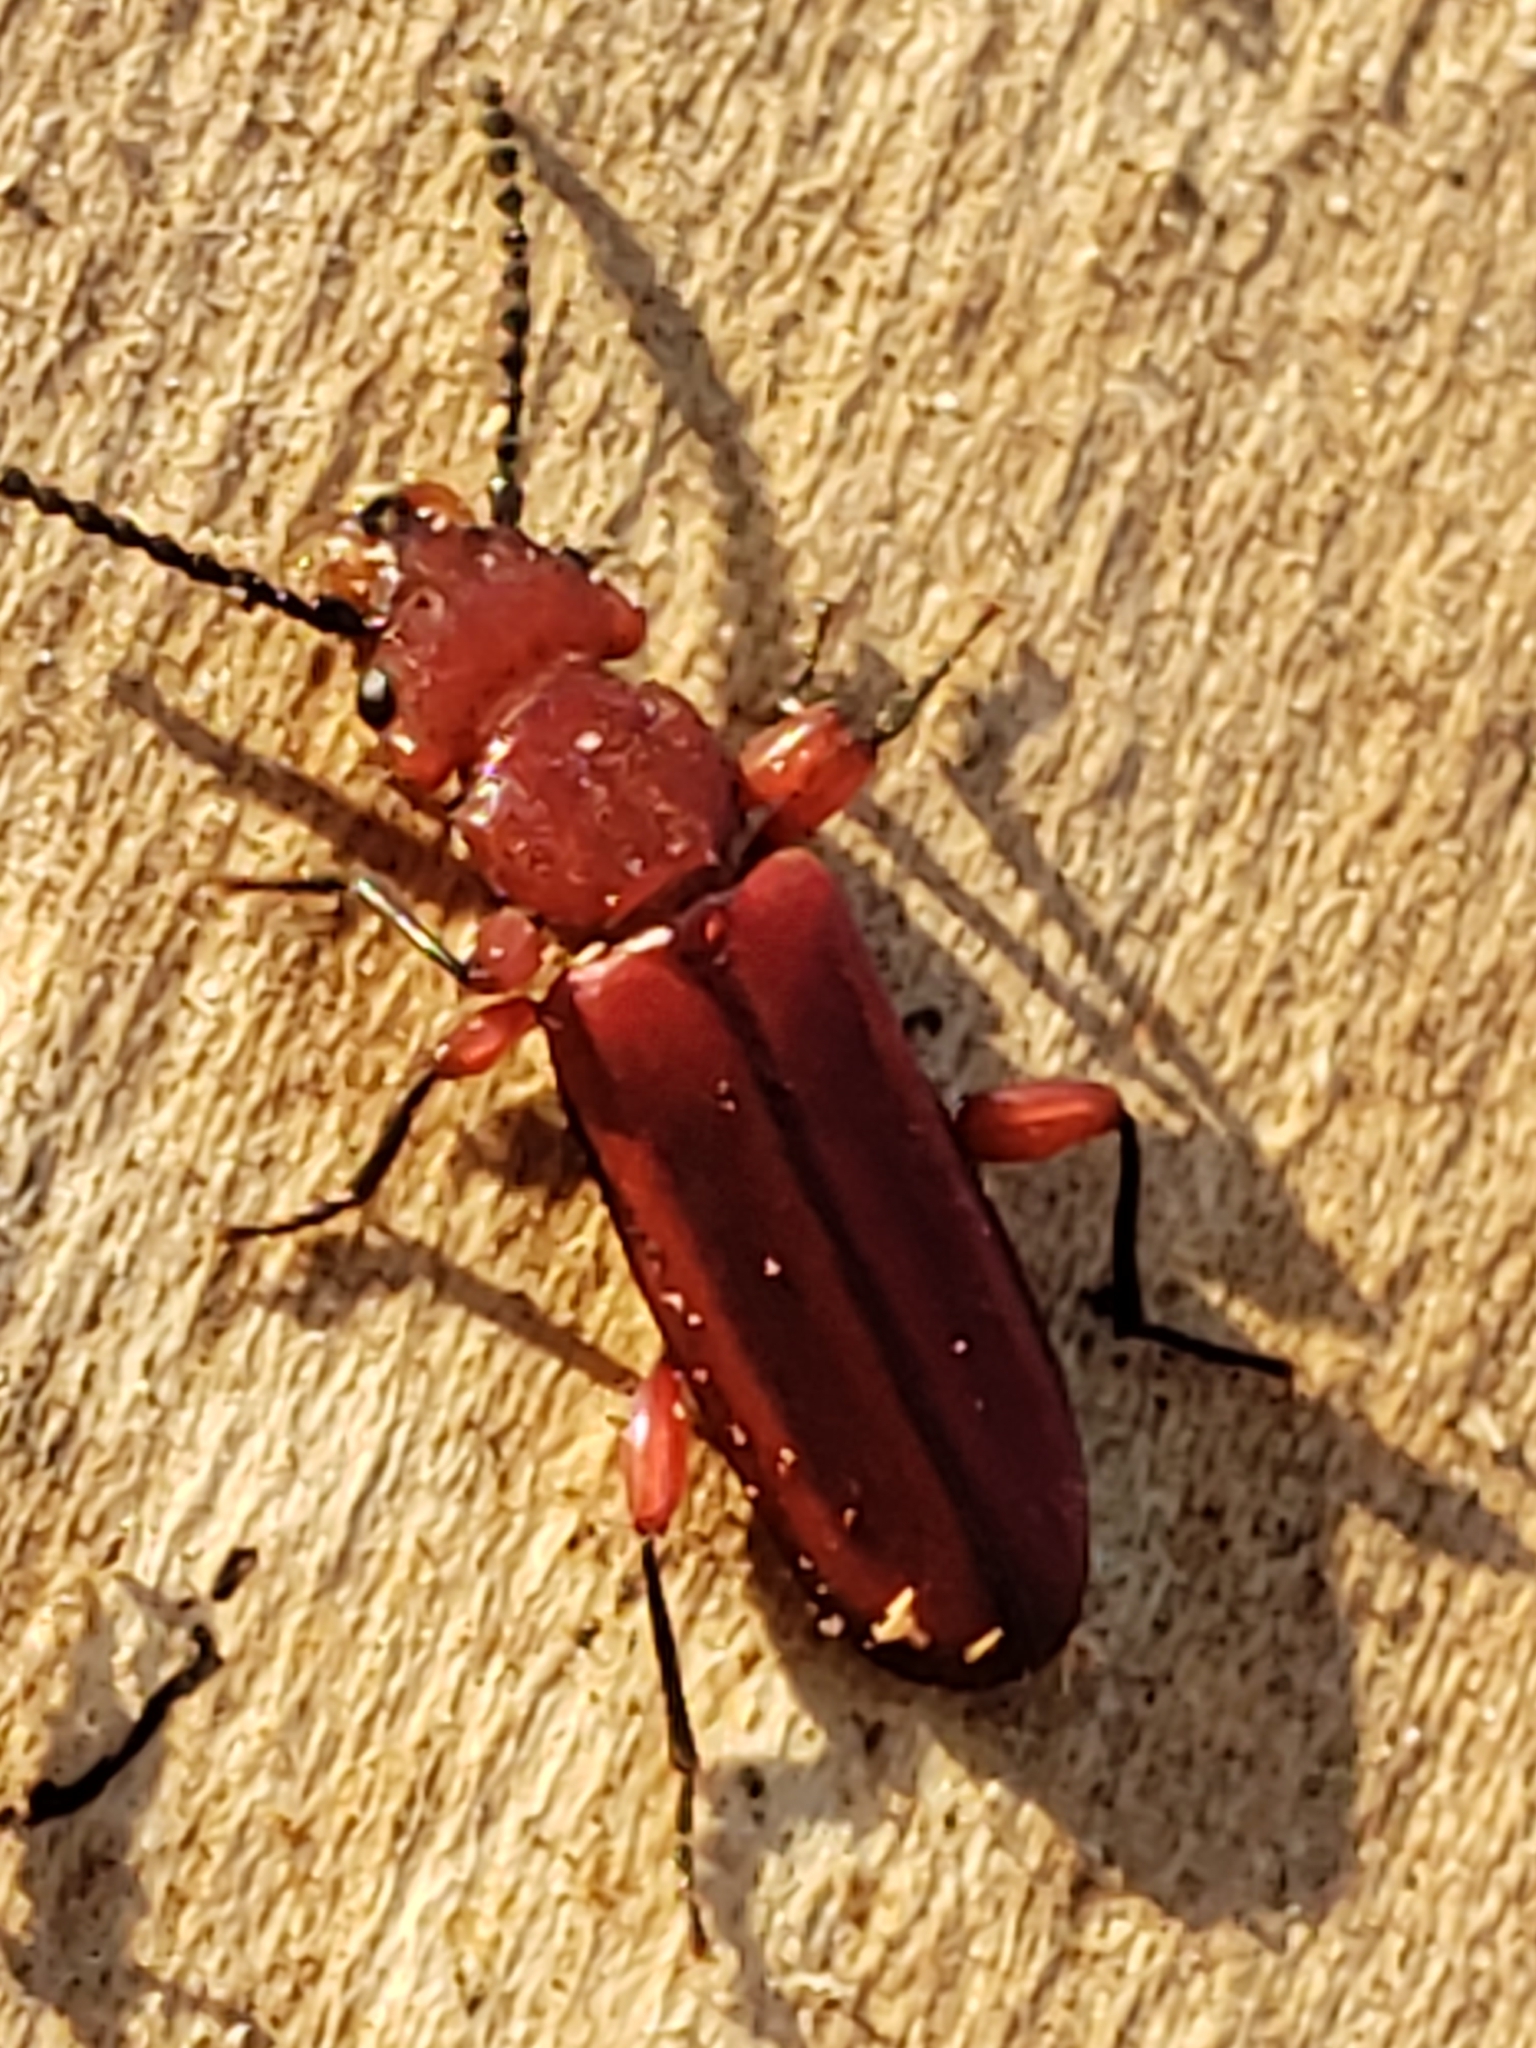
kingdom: Animalia
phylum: Arthropoda
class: Insecta
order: Coleoptera
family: Cucujidae
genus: Cucujus
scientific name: Cucujus clavipes
